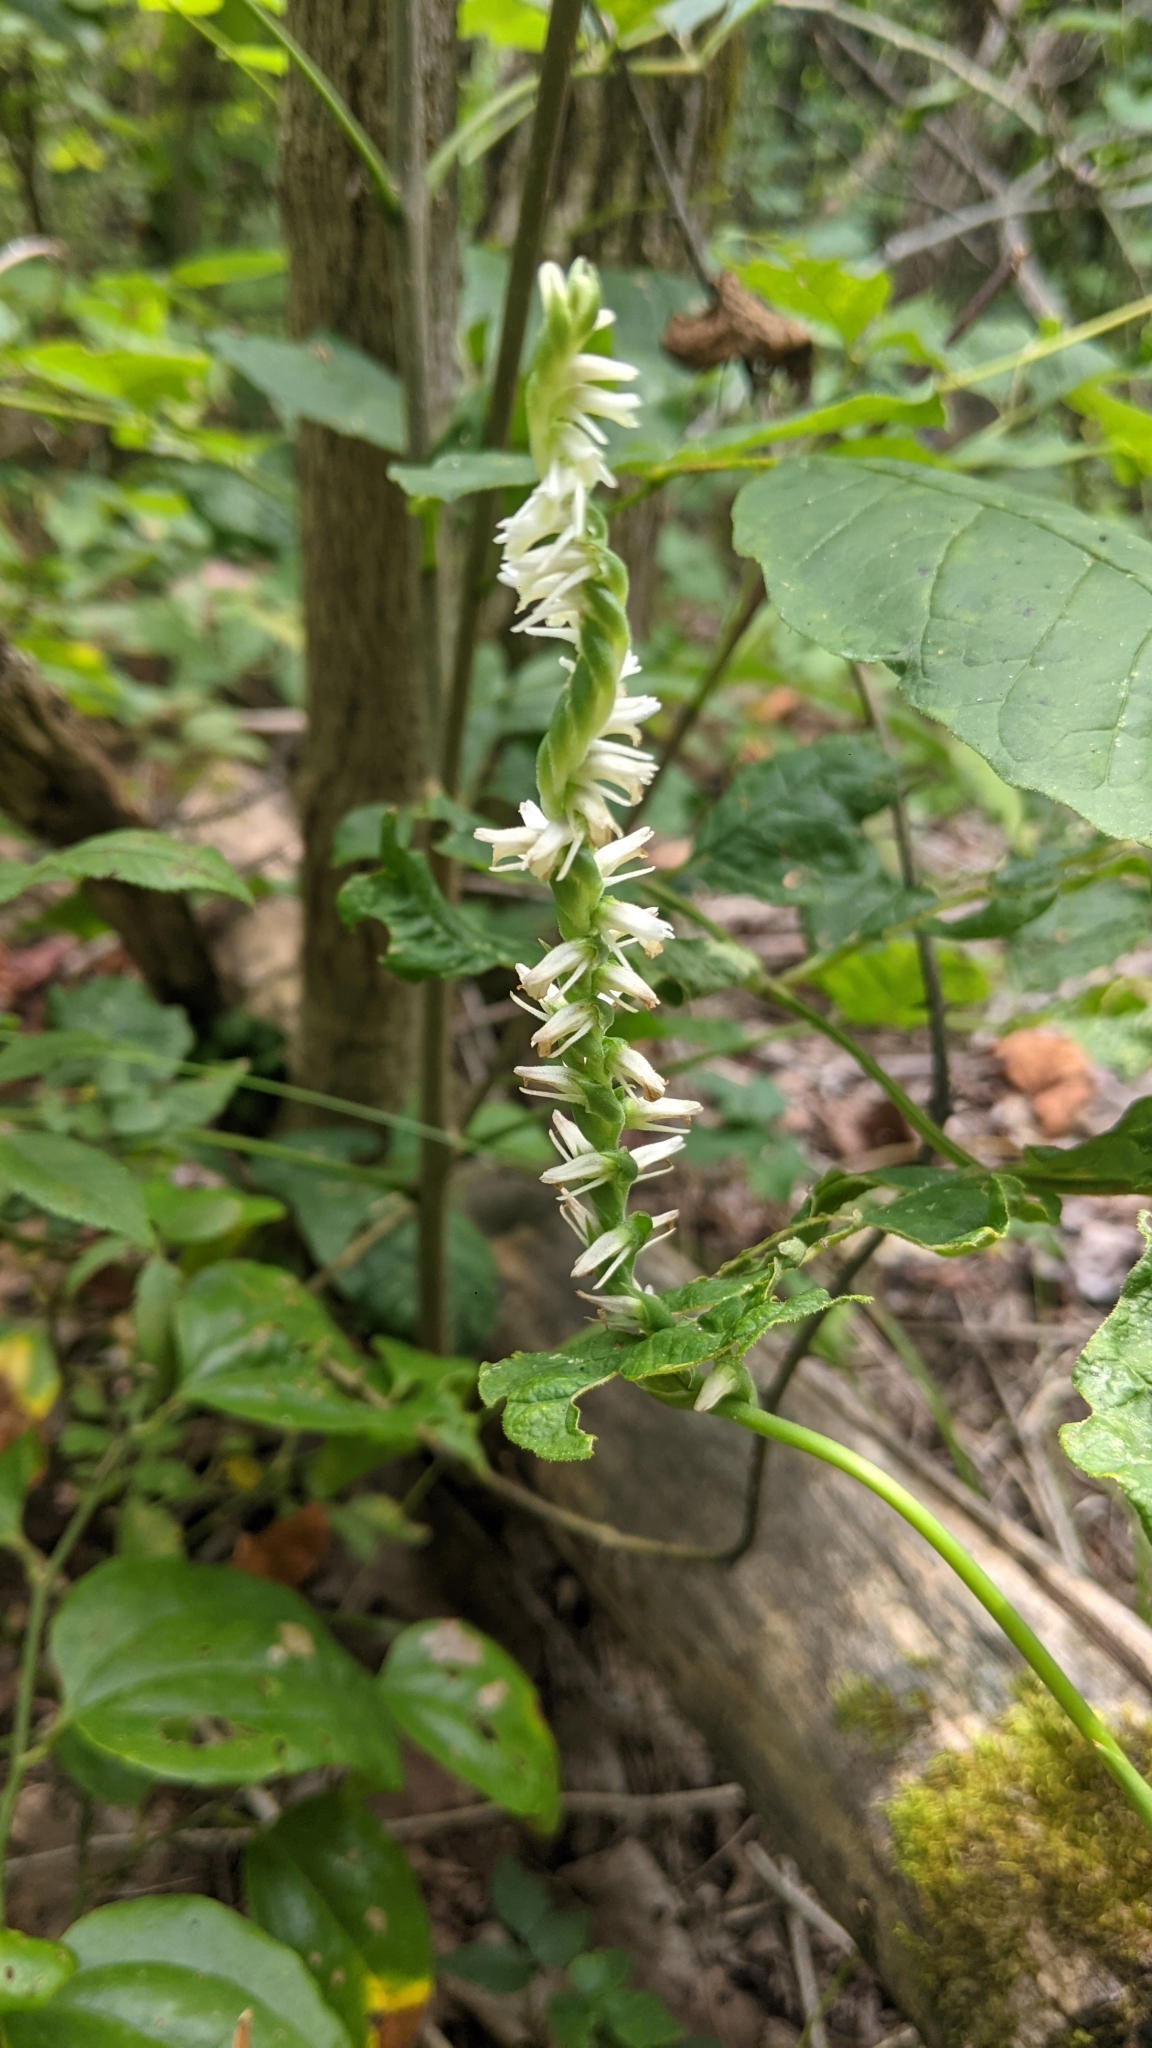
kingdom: Plantae
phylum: Tracheophyta
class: Liliopsida
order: Asparagales
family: Orchidaceae
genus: Spiranthes
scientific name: Spiranthes vernalis
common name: Spring ladies'-tresses
